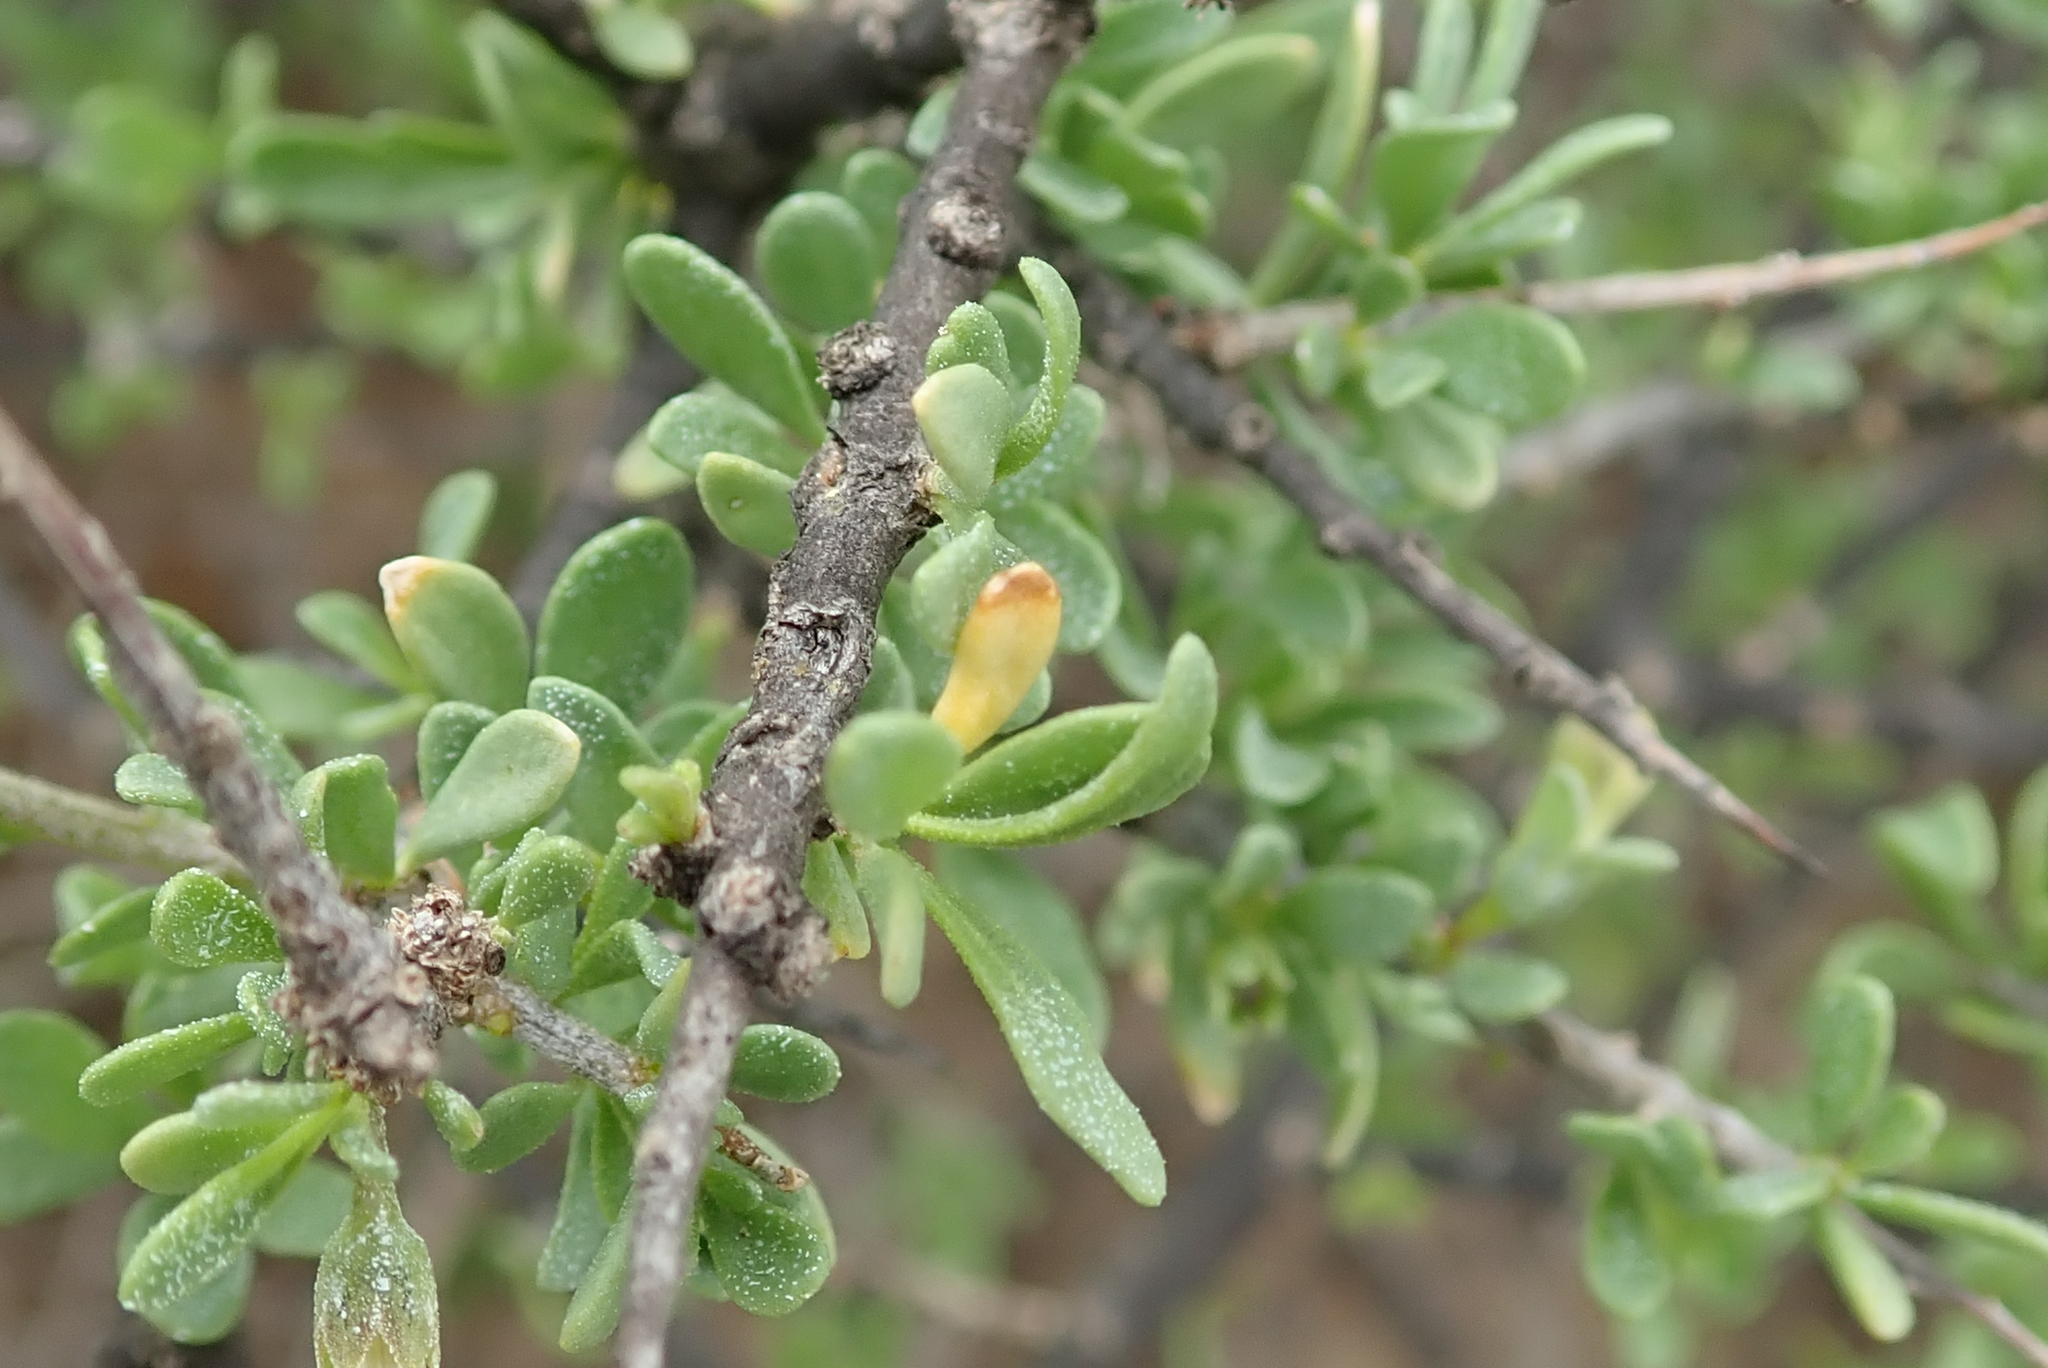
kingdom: Plantae
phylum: Tracheophyta
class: Magnoliopsida
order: Solanales
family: Solanaceae
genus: Lycium
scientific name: Lycium schizocalyx
